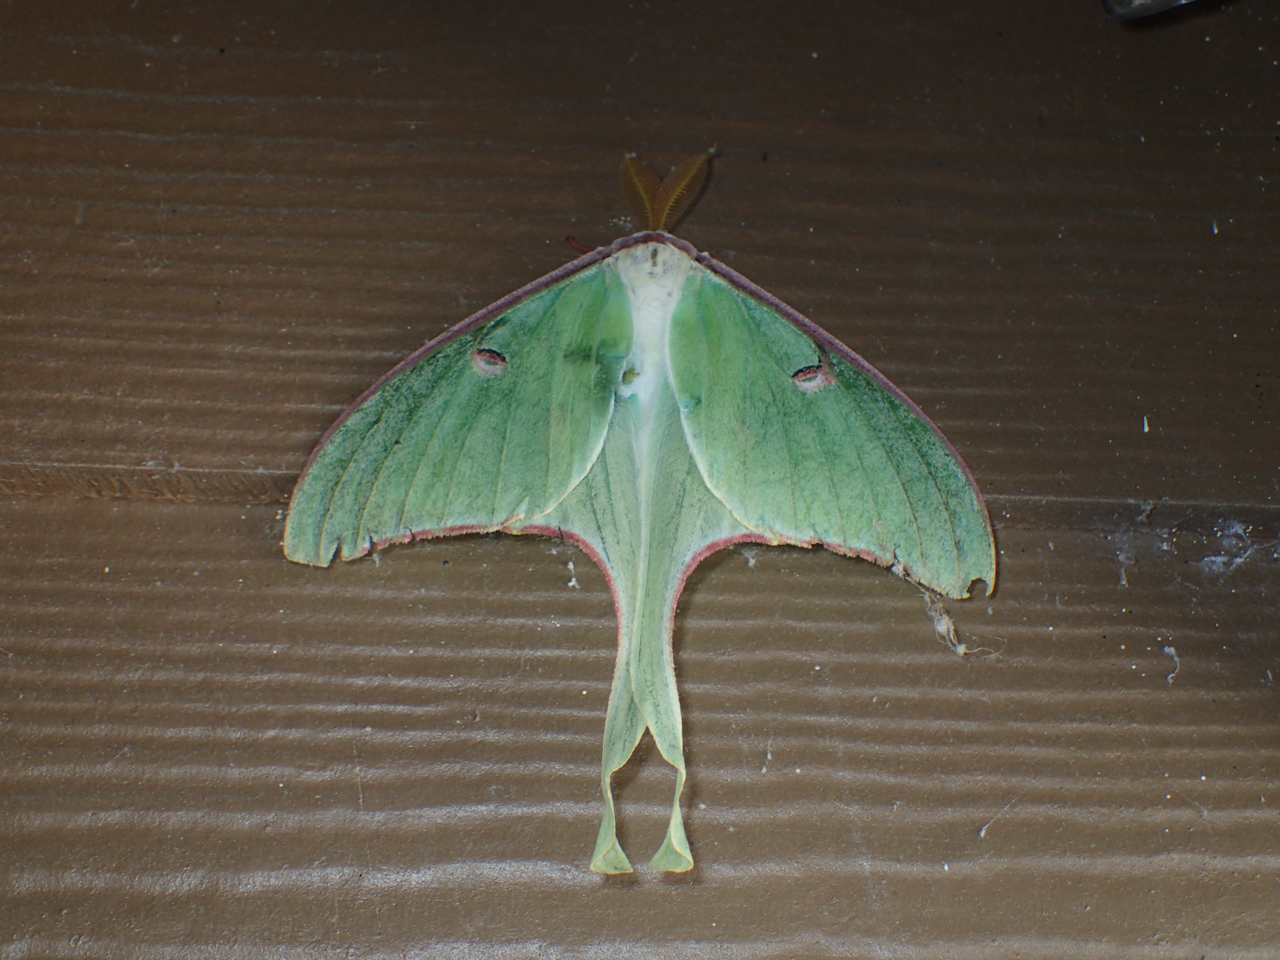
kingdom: Animalia
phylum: Arthropoda
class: Insecta
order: Lepidoptera
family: Saturniidae
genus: Actias
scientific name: Actias luna
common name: Luna moth
